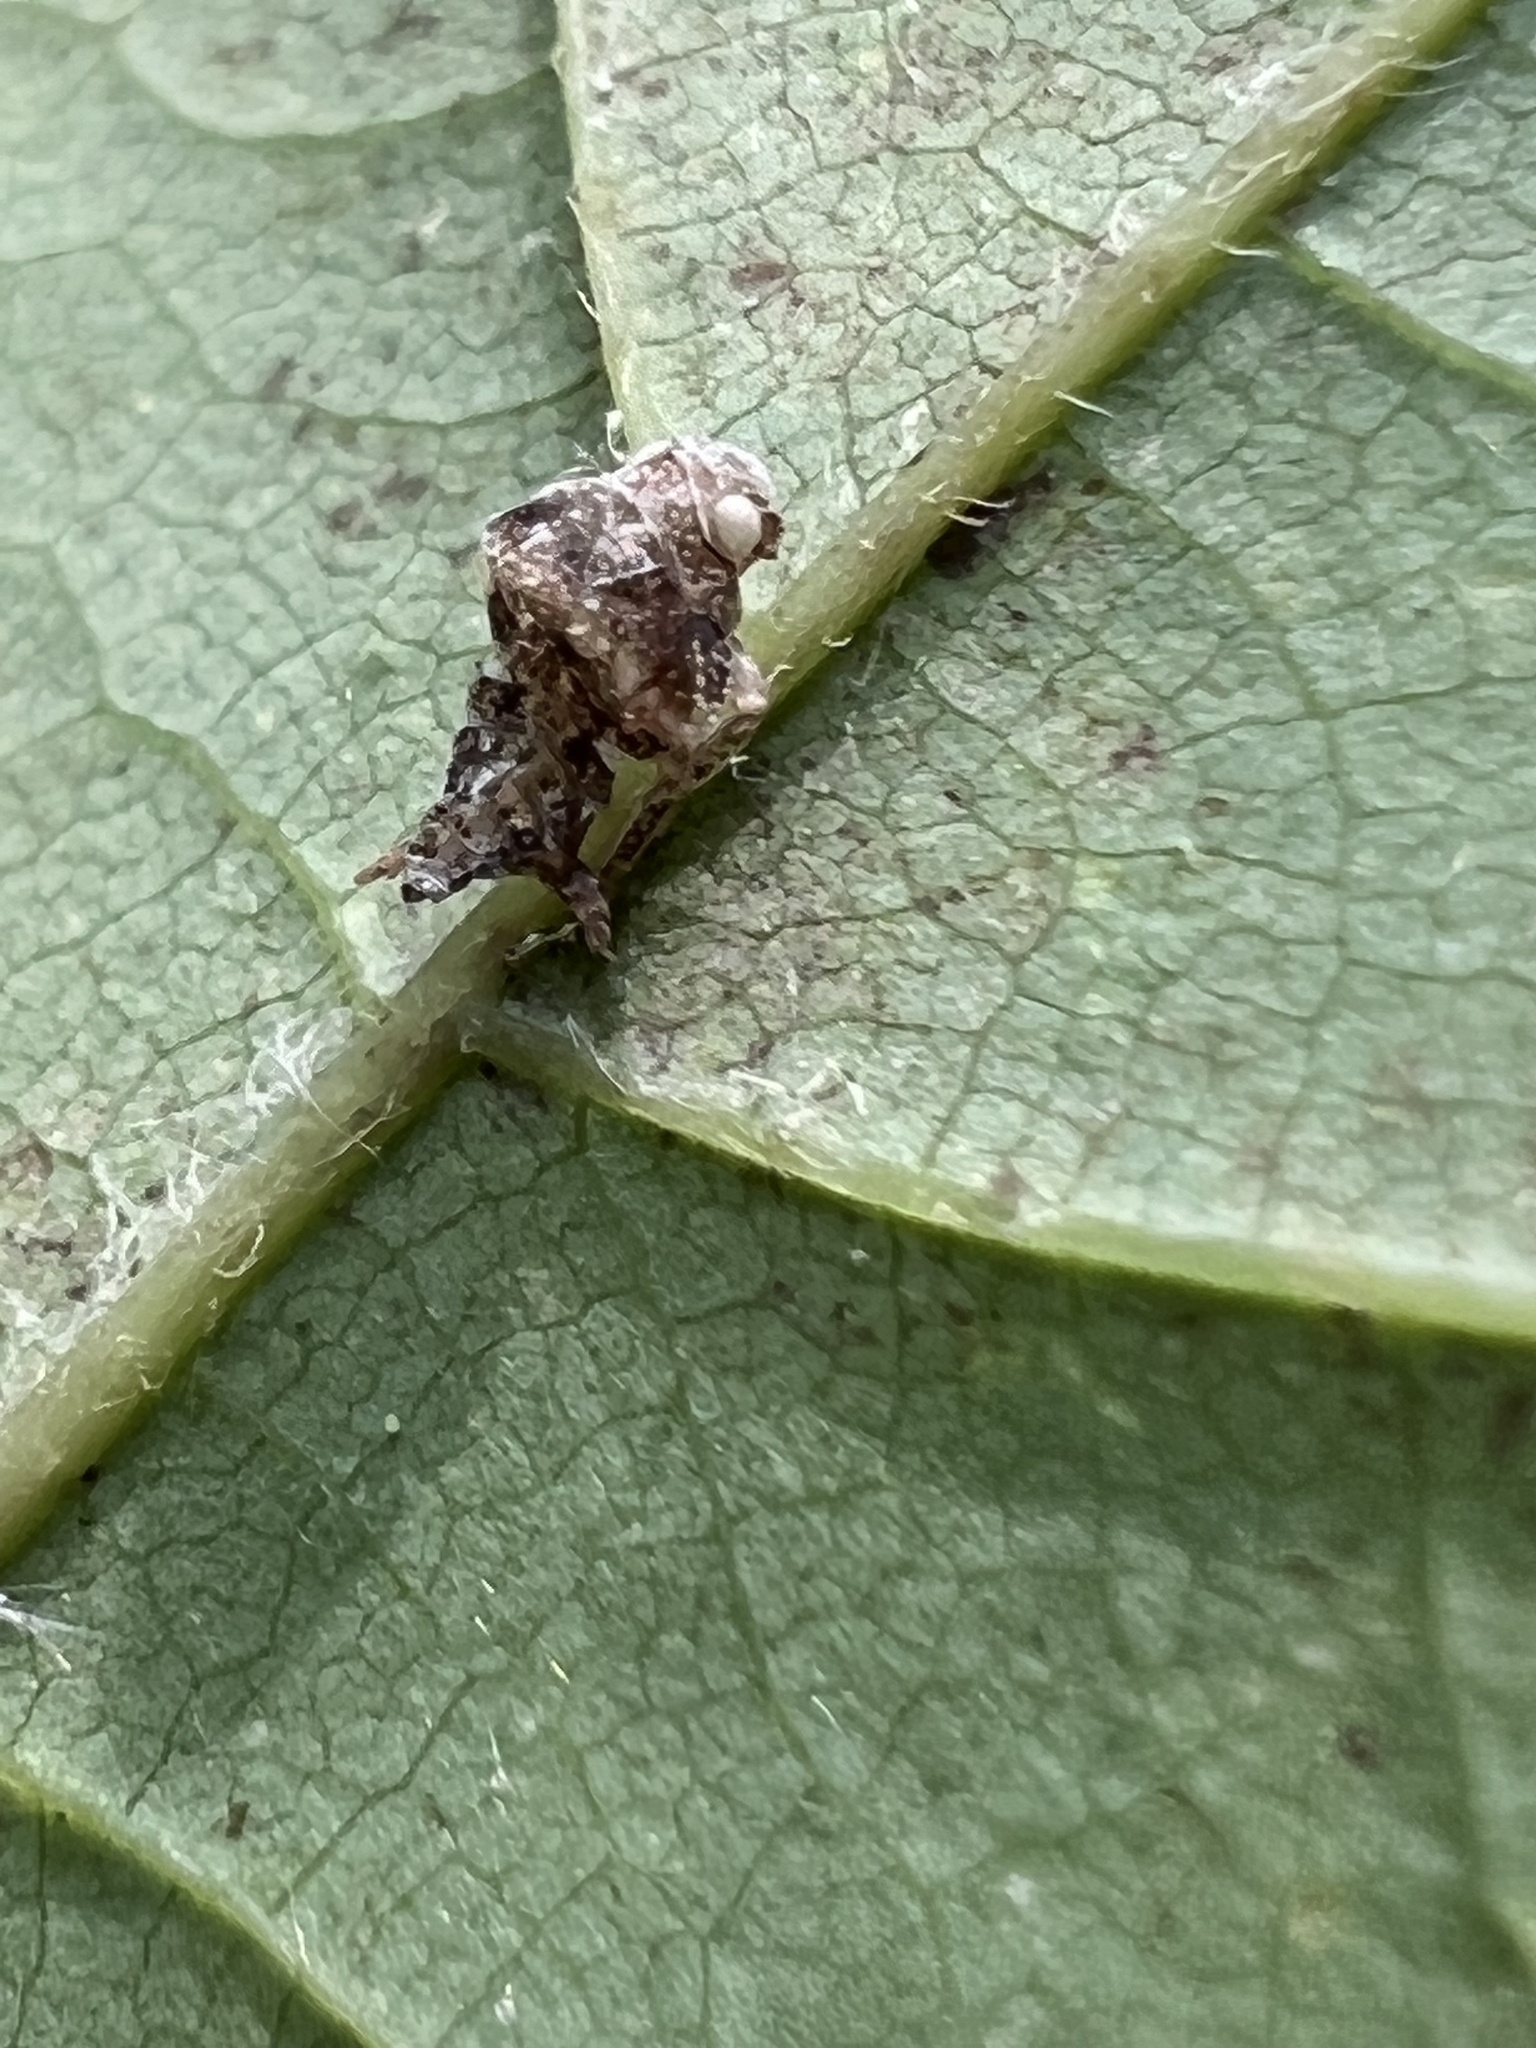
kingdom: Animalia
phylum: Arthropoda
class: Insecta
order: Hemiptera
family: Membracidae
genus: Entylia
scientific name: Entylia carinata
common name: Keeled treehopper
